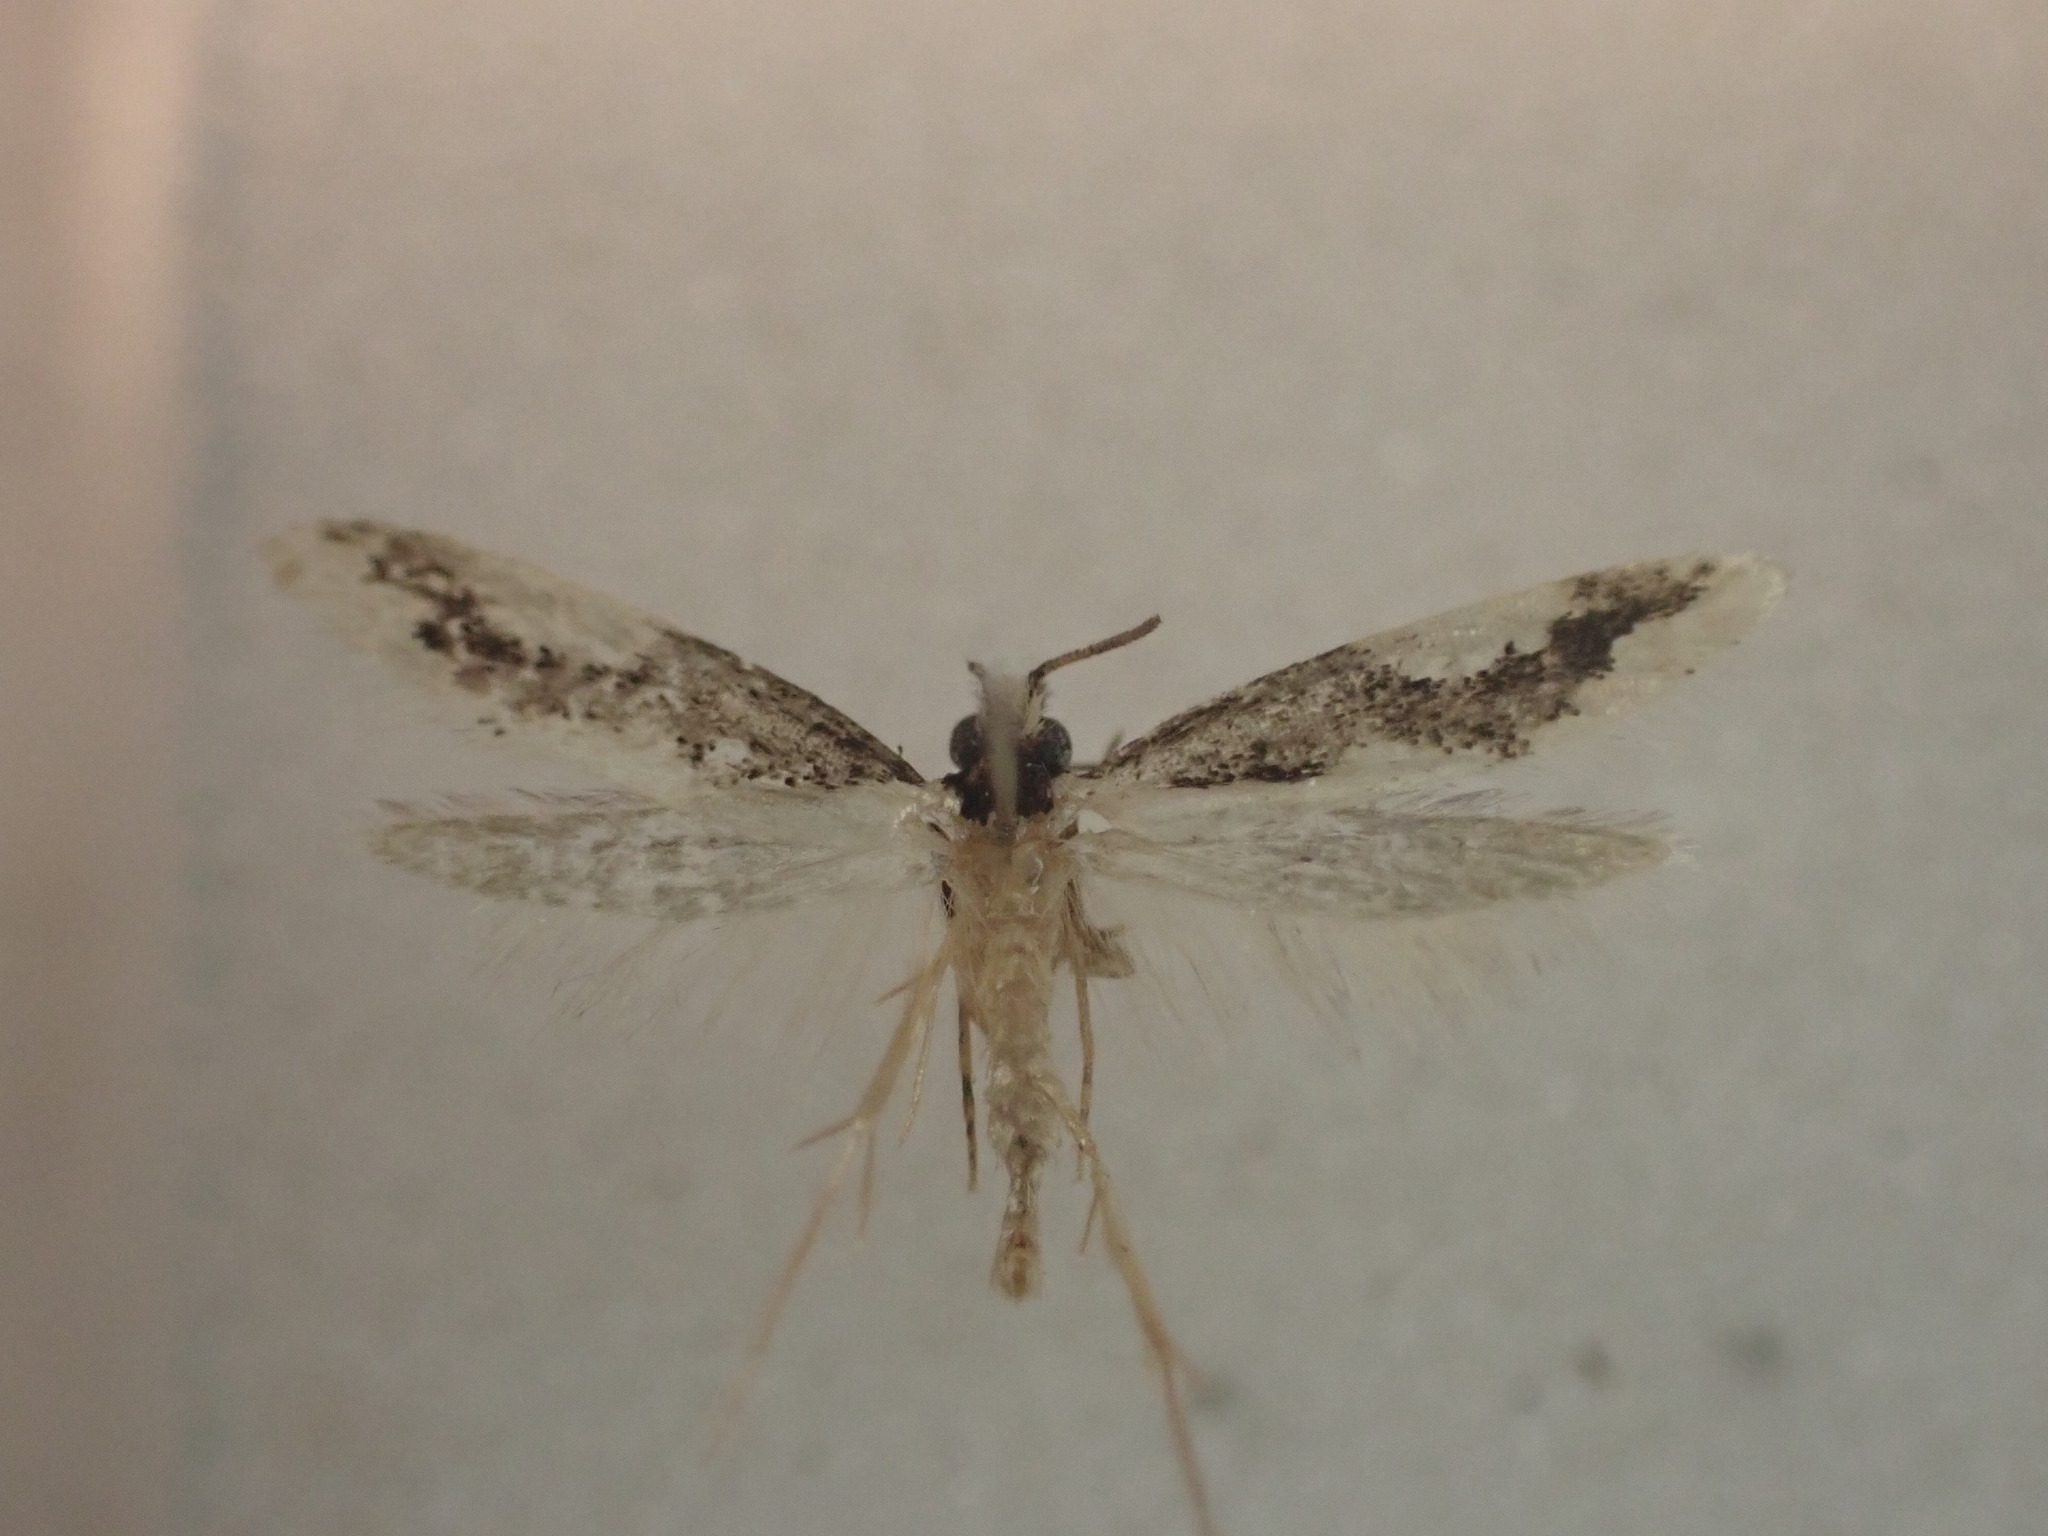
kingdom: Animalia
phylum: Arthropoda
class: Insecta
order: Lepidoptera
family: Tineidae
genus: Thallostoma
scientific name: Thallostoma eurygrapha
